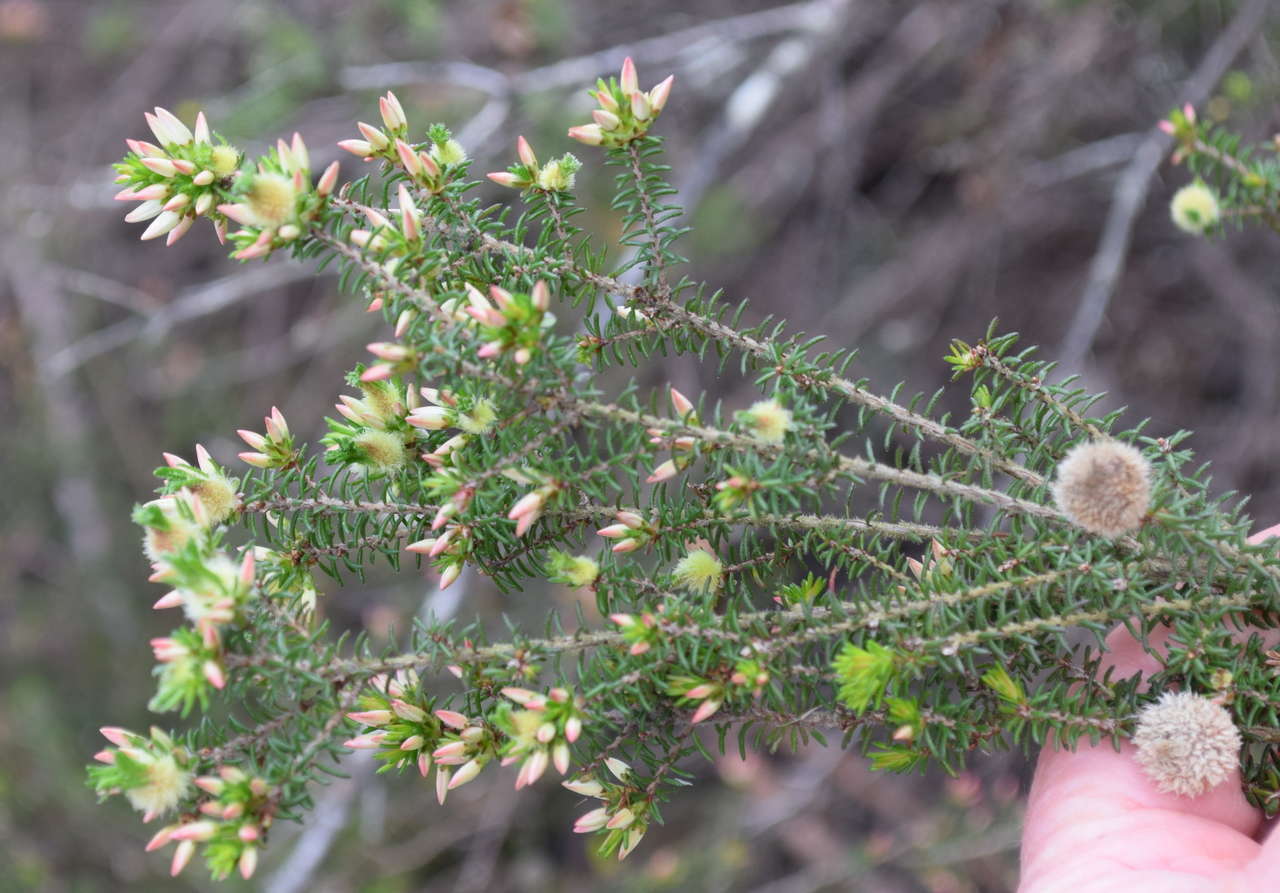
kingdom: Plantae
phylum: Tracheophyta
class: Magnoliopsida
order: Myrtales
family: Myrtaceae
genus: Calytrix
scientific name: Calytrix alpestris
